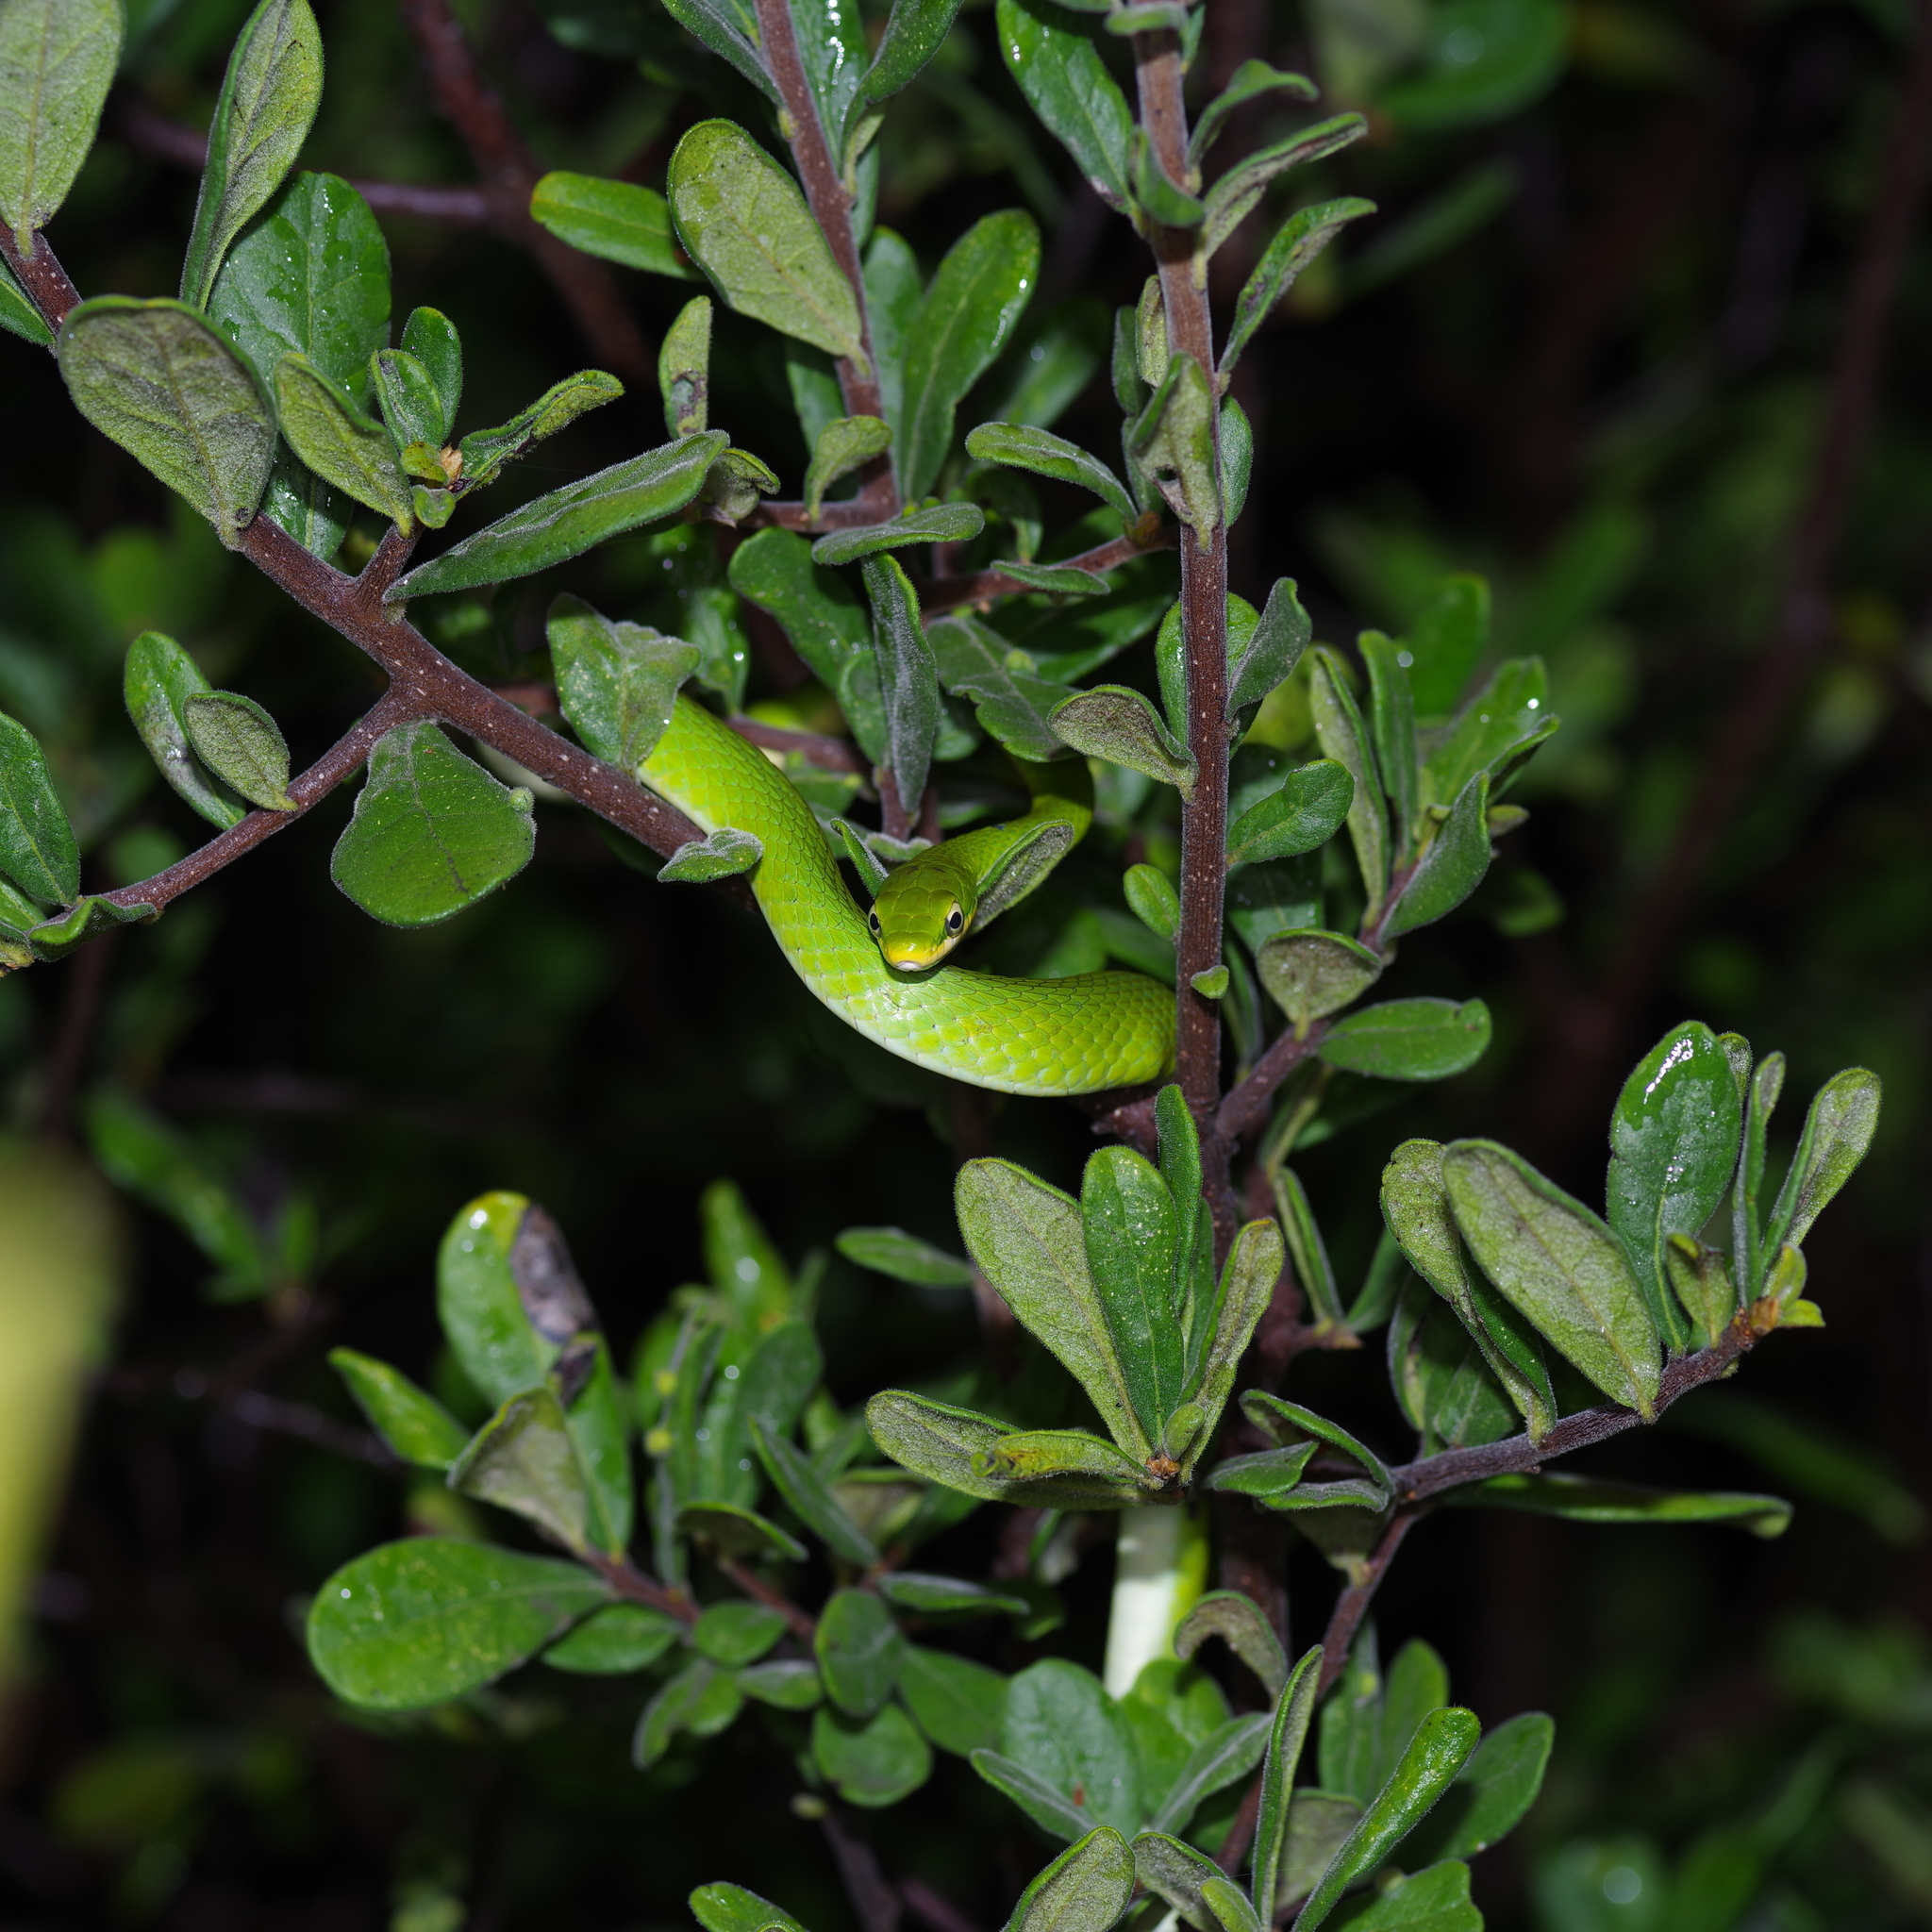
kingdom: Animalia
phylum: Chordata
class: Squamata
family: Colubridae
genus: Opheodrys
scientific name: Opheodrys aestivus
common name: Rough greensnake
